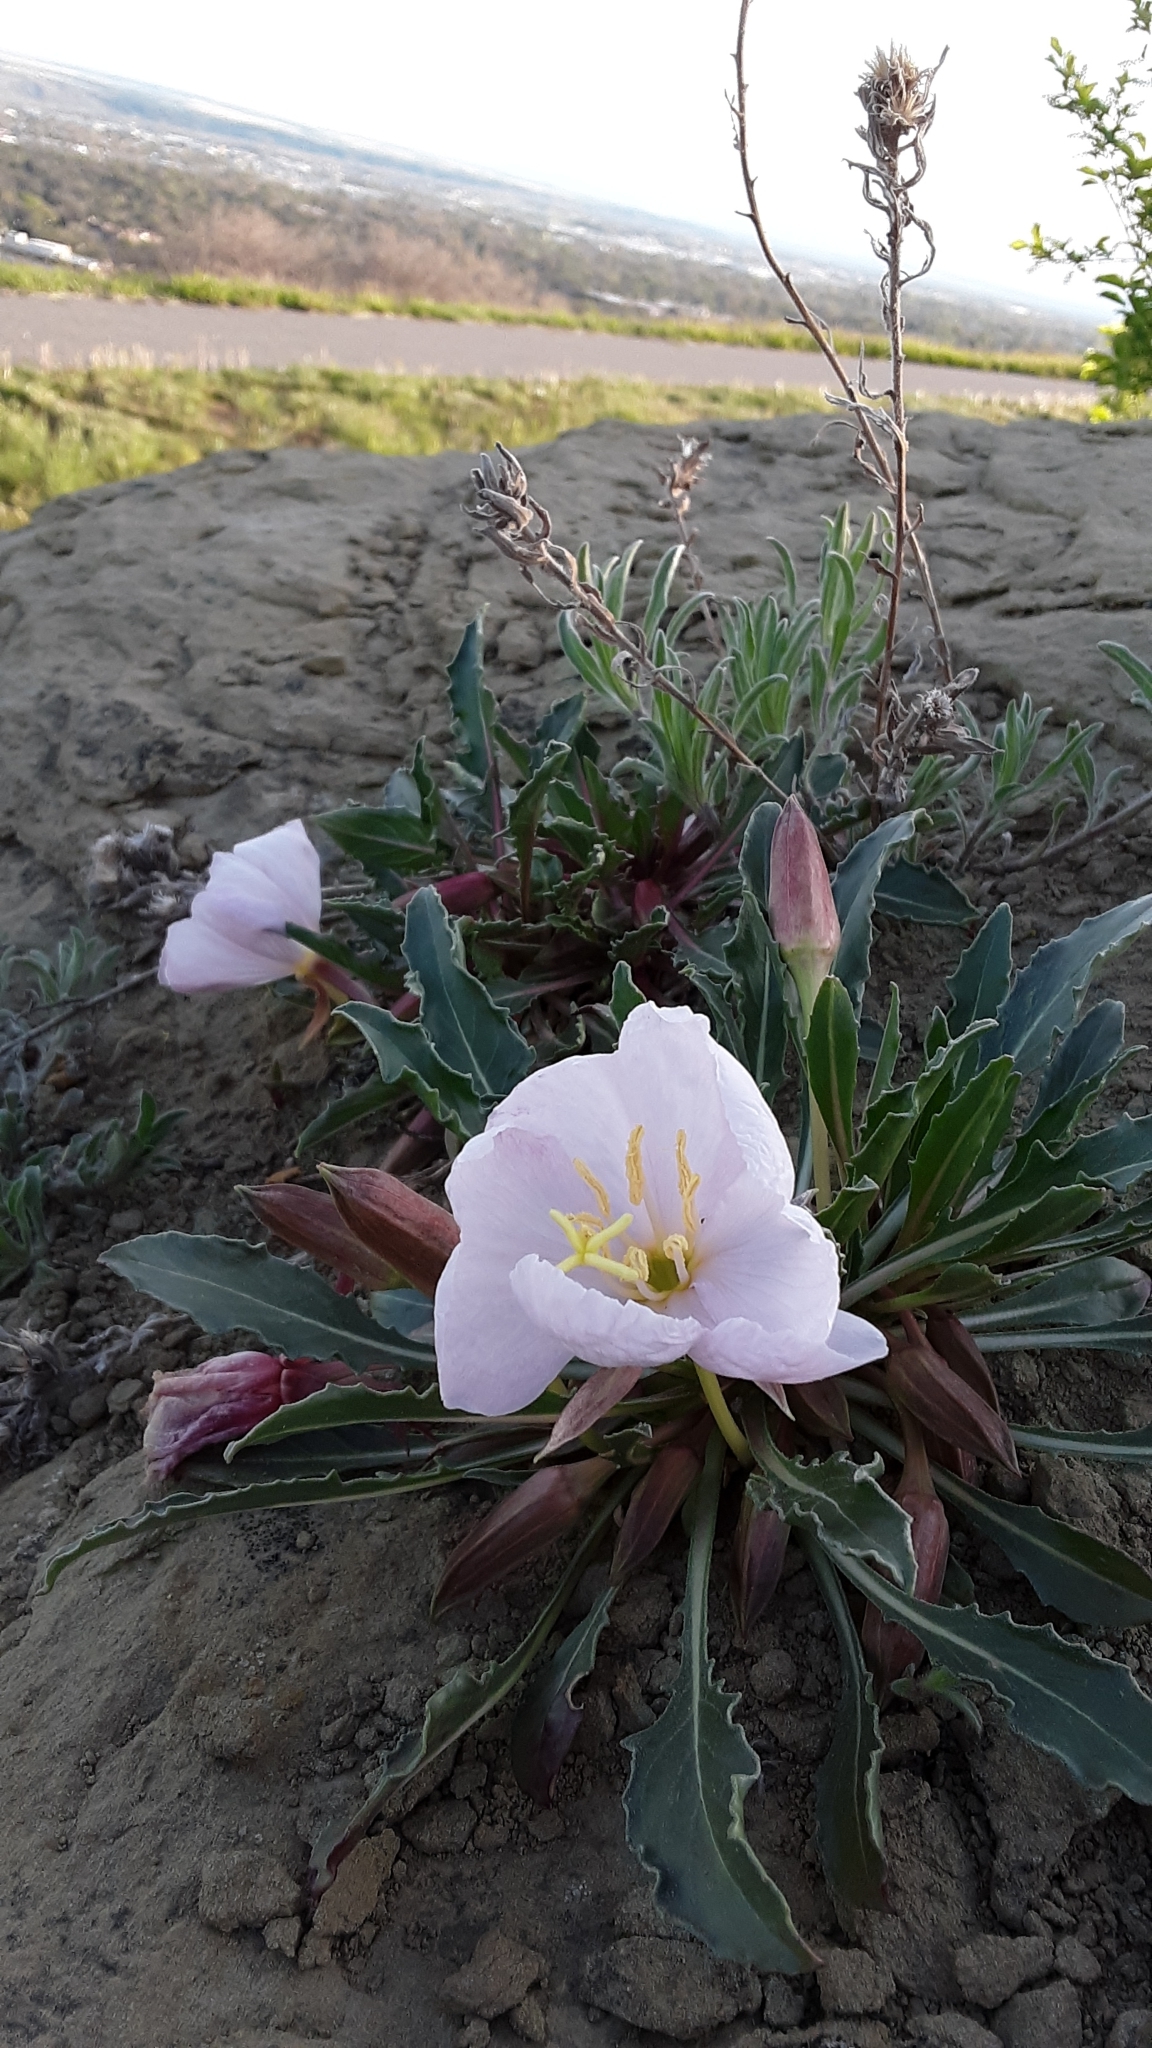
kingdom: Plantae
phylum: Tracheophyta
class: Magnoliopsida
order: Myrtales
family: Onagraceae
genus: Oenothera
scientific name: Oenothera cespitosa
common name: Tufted evening-primrose
